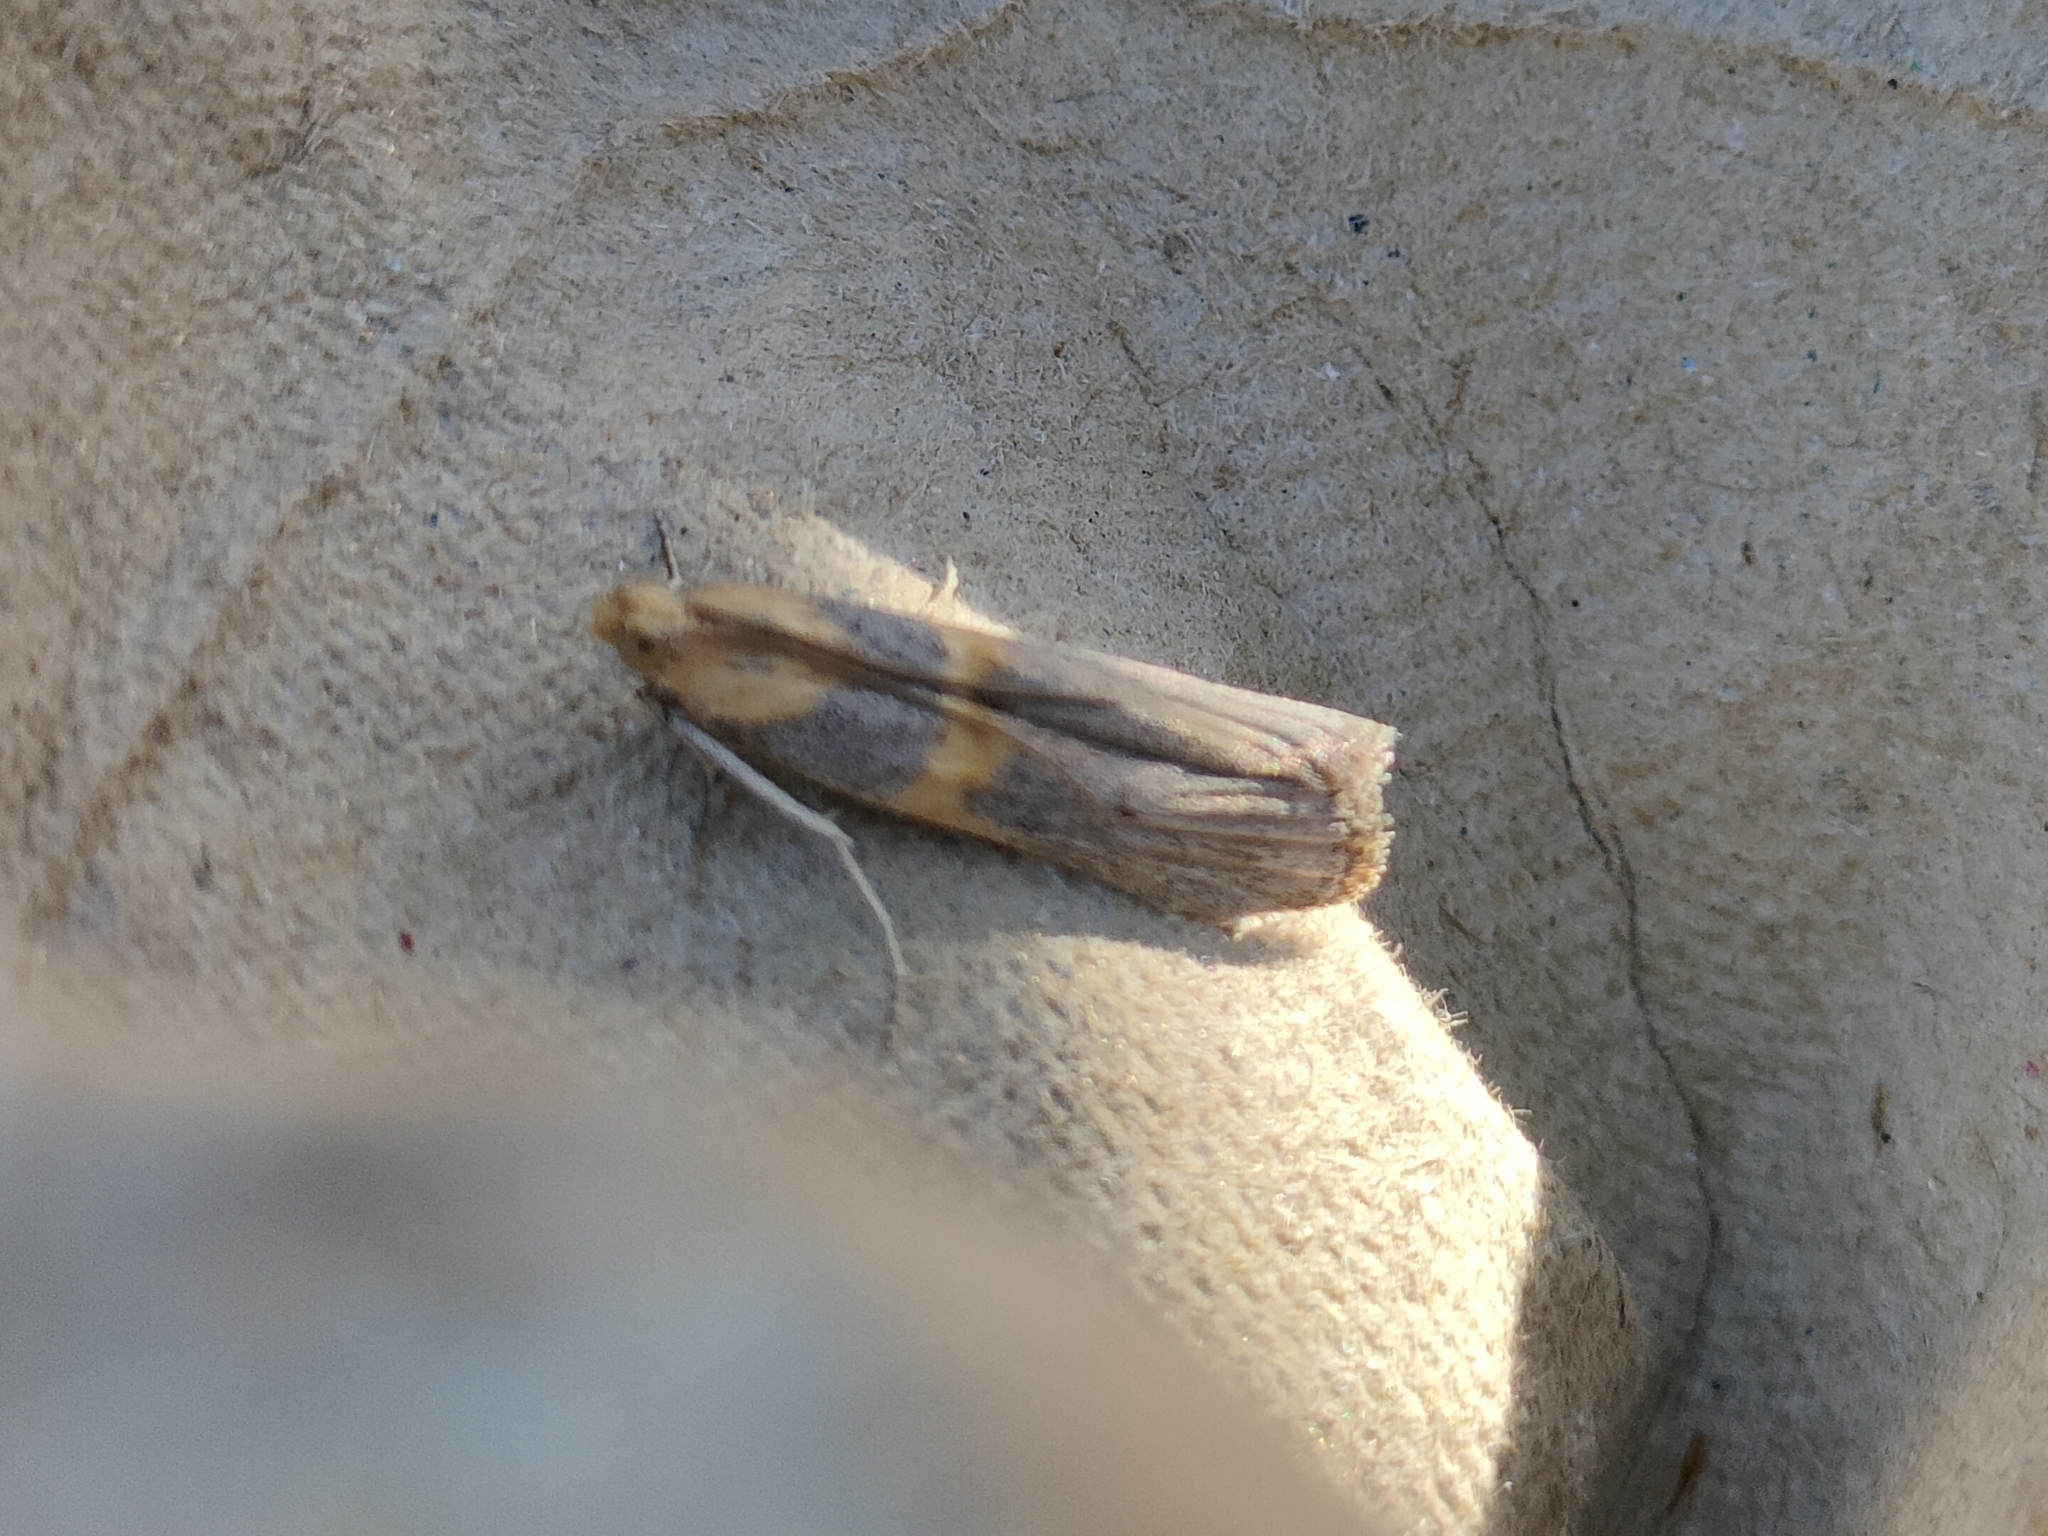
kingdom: Animalia
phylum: Arthropoda
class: Insecta
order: Lepidoptera
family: Pyralidae
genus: Oxybia
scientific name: Oxybia transversella
